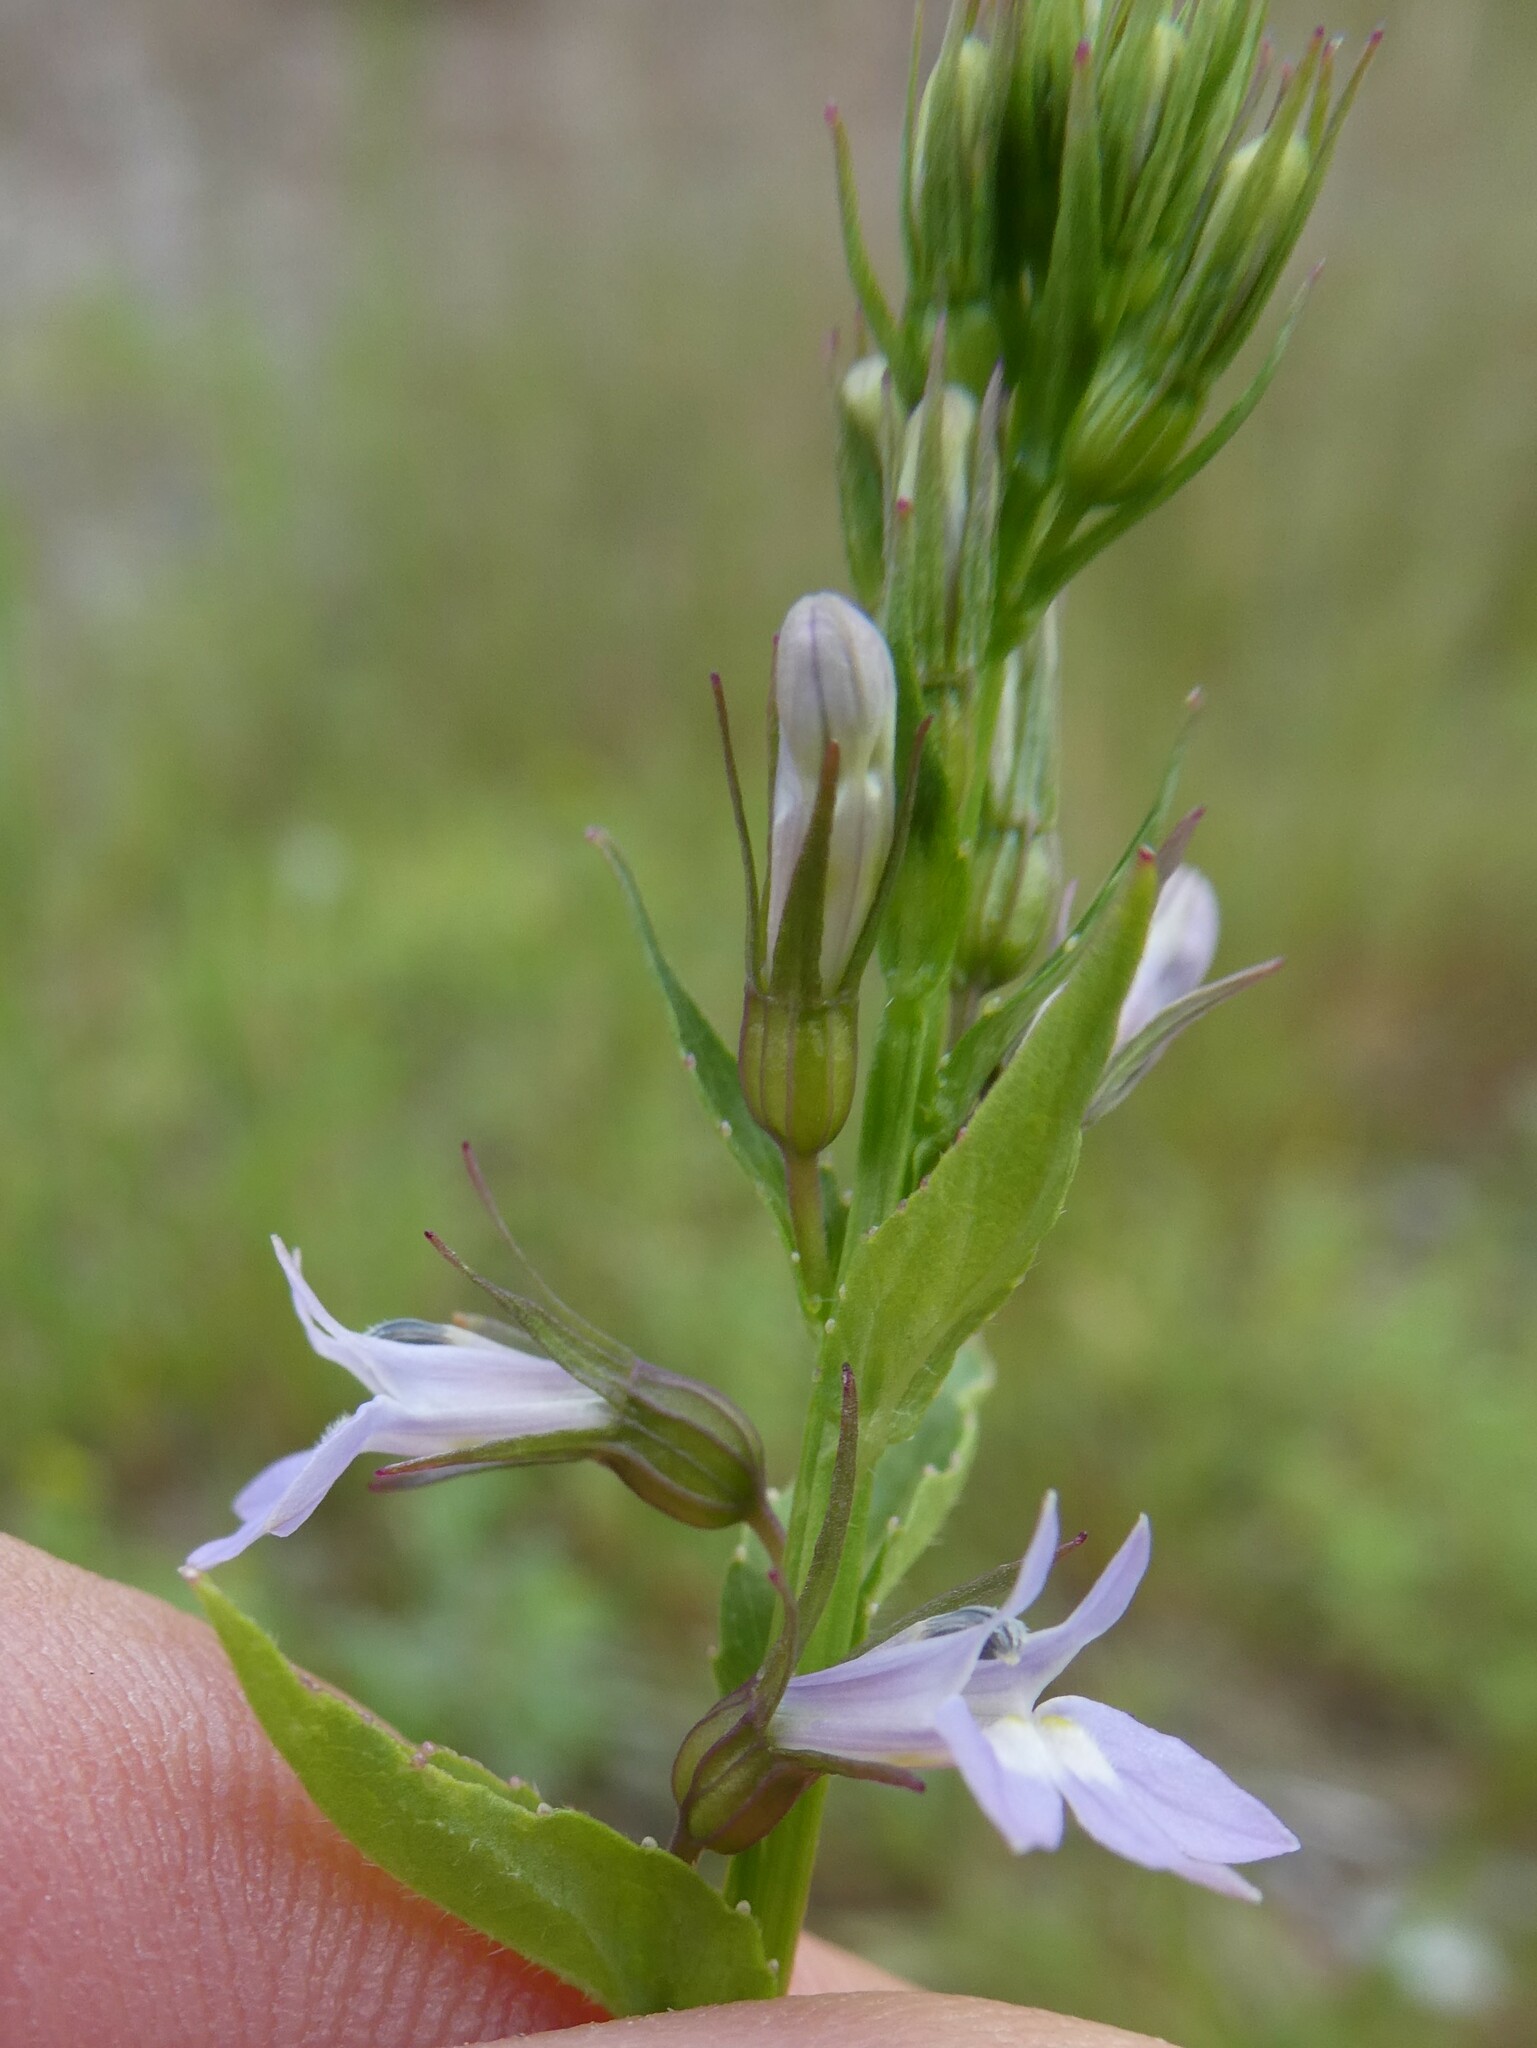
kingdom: Plantae
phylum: Tracheophyta
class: Magnoliopsida
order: Asterales
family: Campanulaceae
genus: Lobelia
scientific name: Lobelia inflata
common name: Indian tobacco
